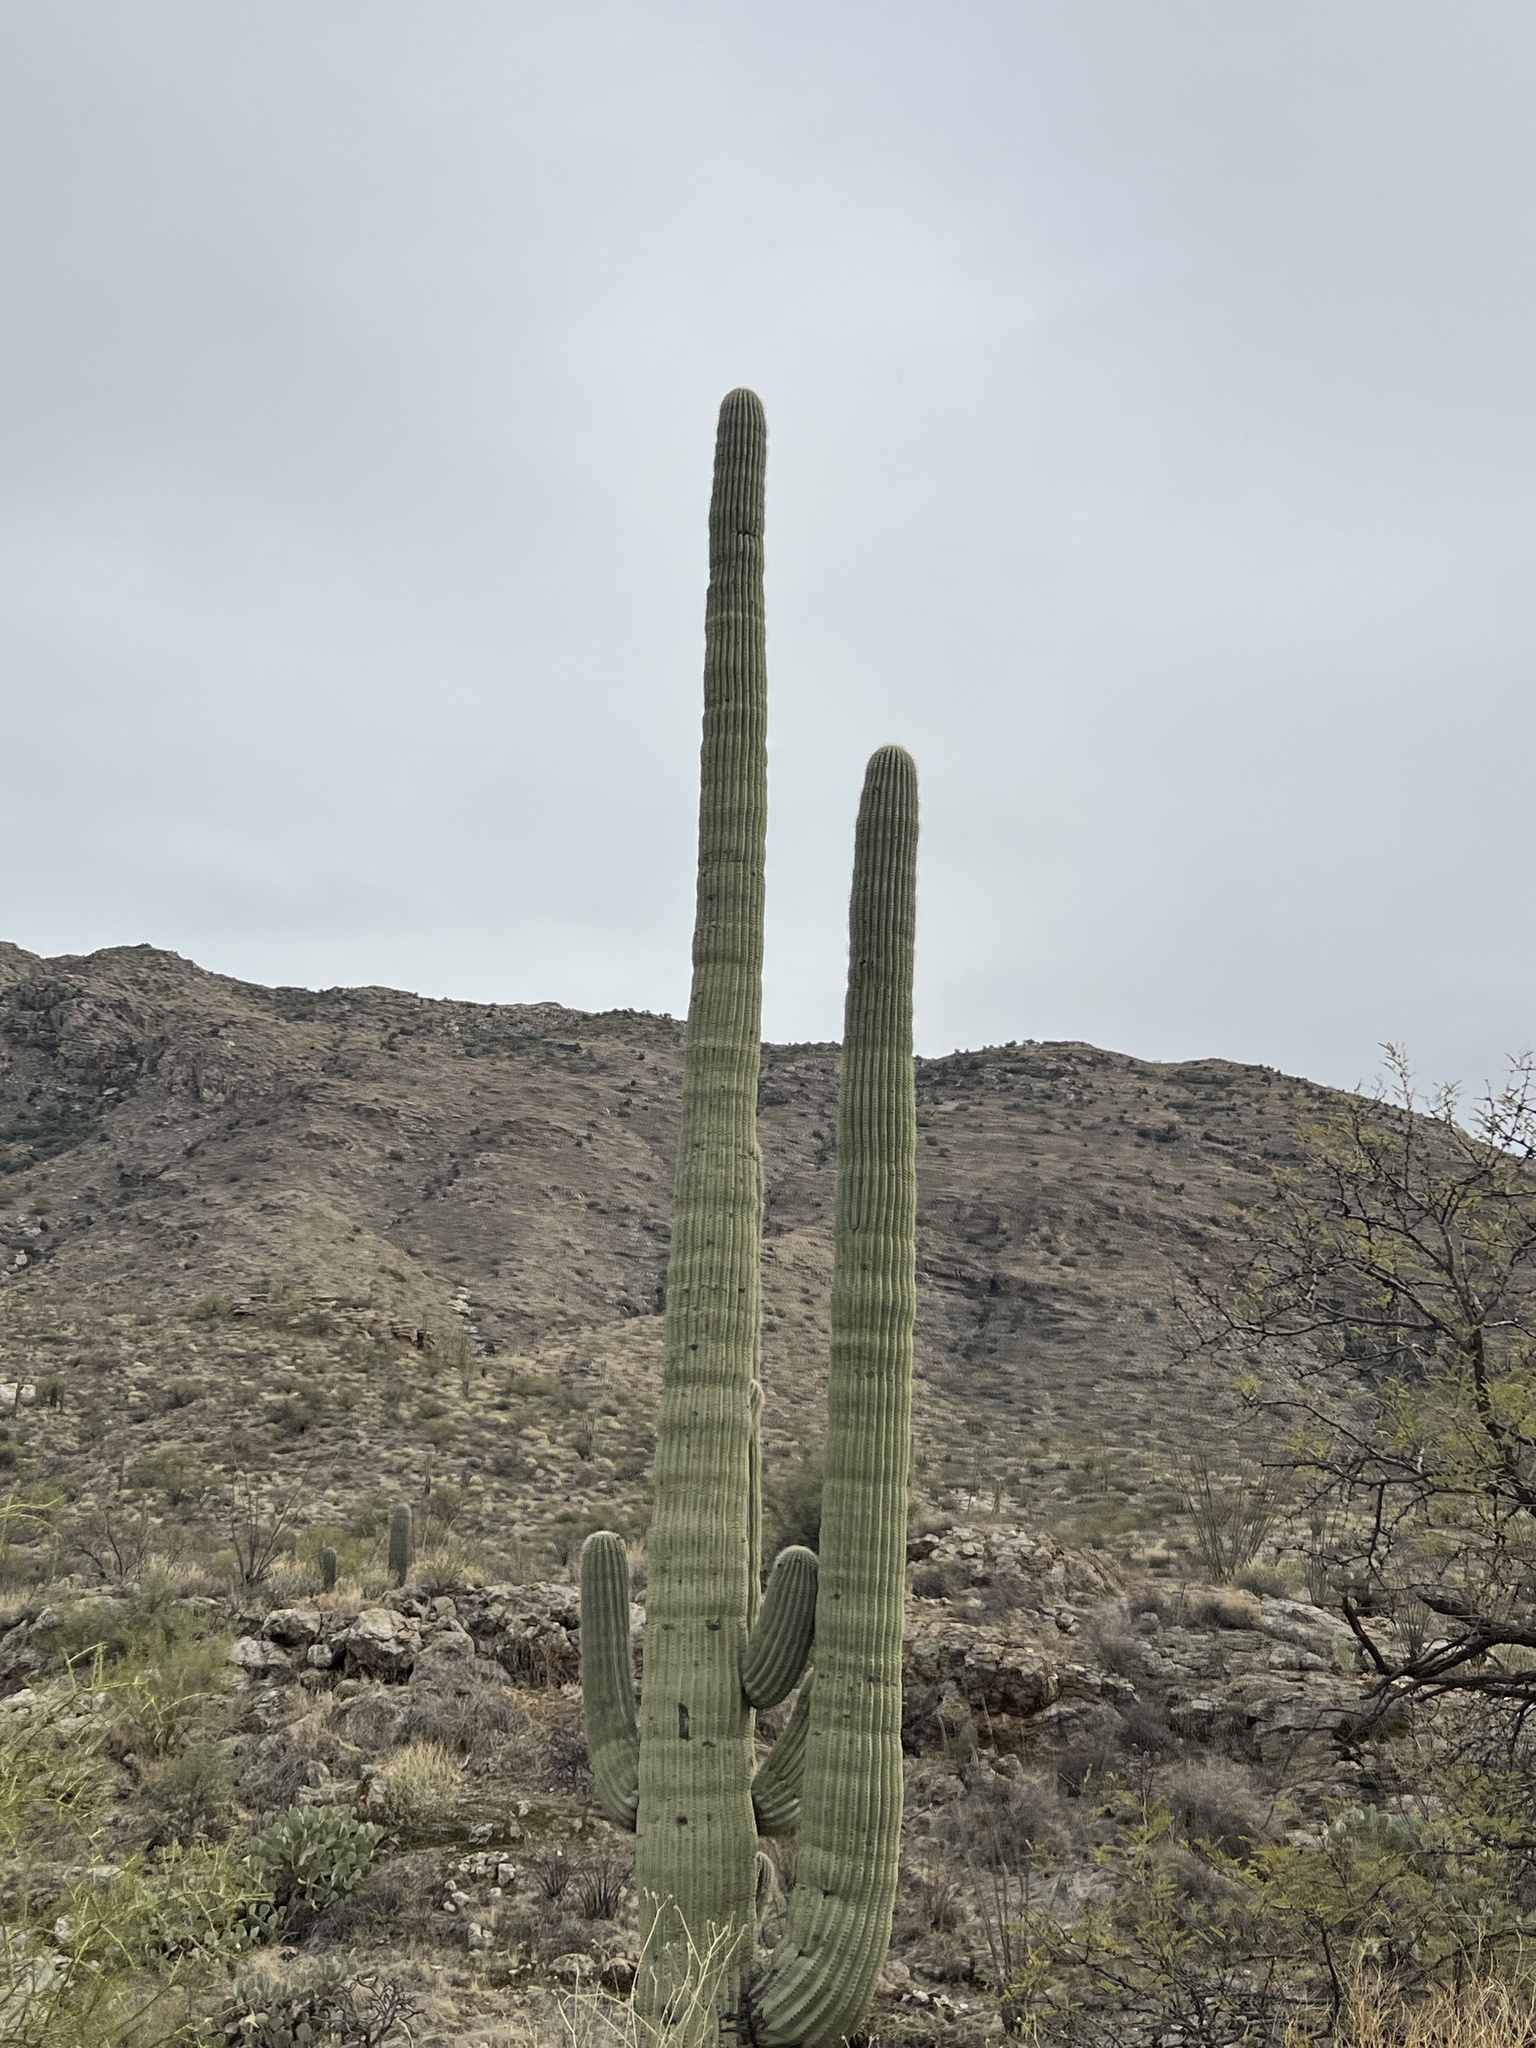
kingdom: Plantae
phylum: Tracheophyta
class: Magnoliopsida
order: Caryophyllales
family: Cactaceae
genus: Carnegiea
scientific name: Carnegiea gigantea
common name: Saguaro
